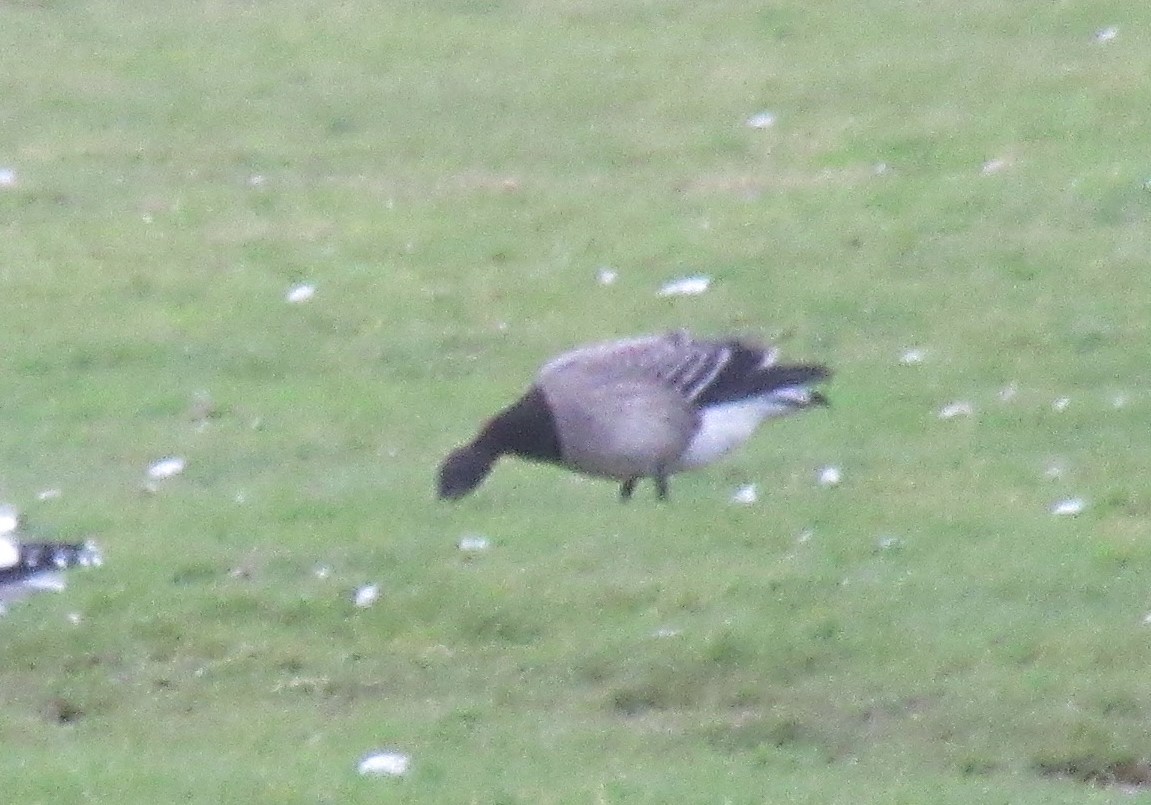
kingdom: Animalia
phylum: Chordata
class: Aves
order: Anseriformes
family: Anatidae
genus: Branta
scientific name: Branta bernicla
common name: Brant goose
